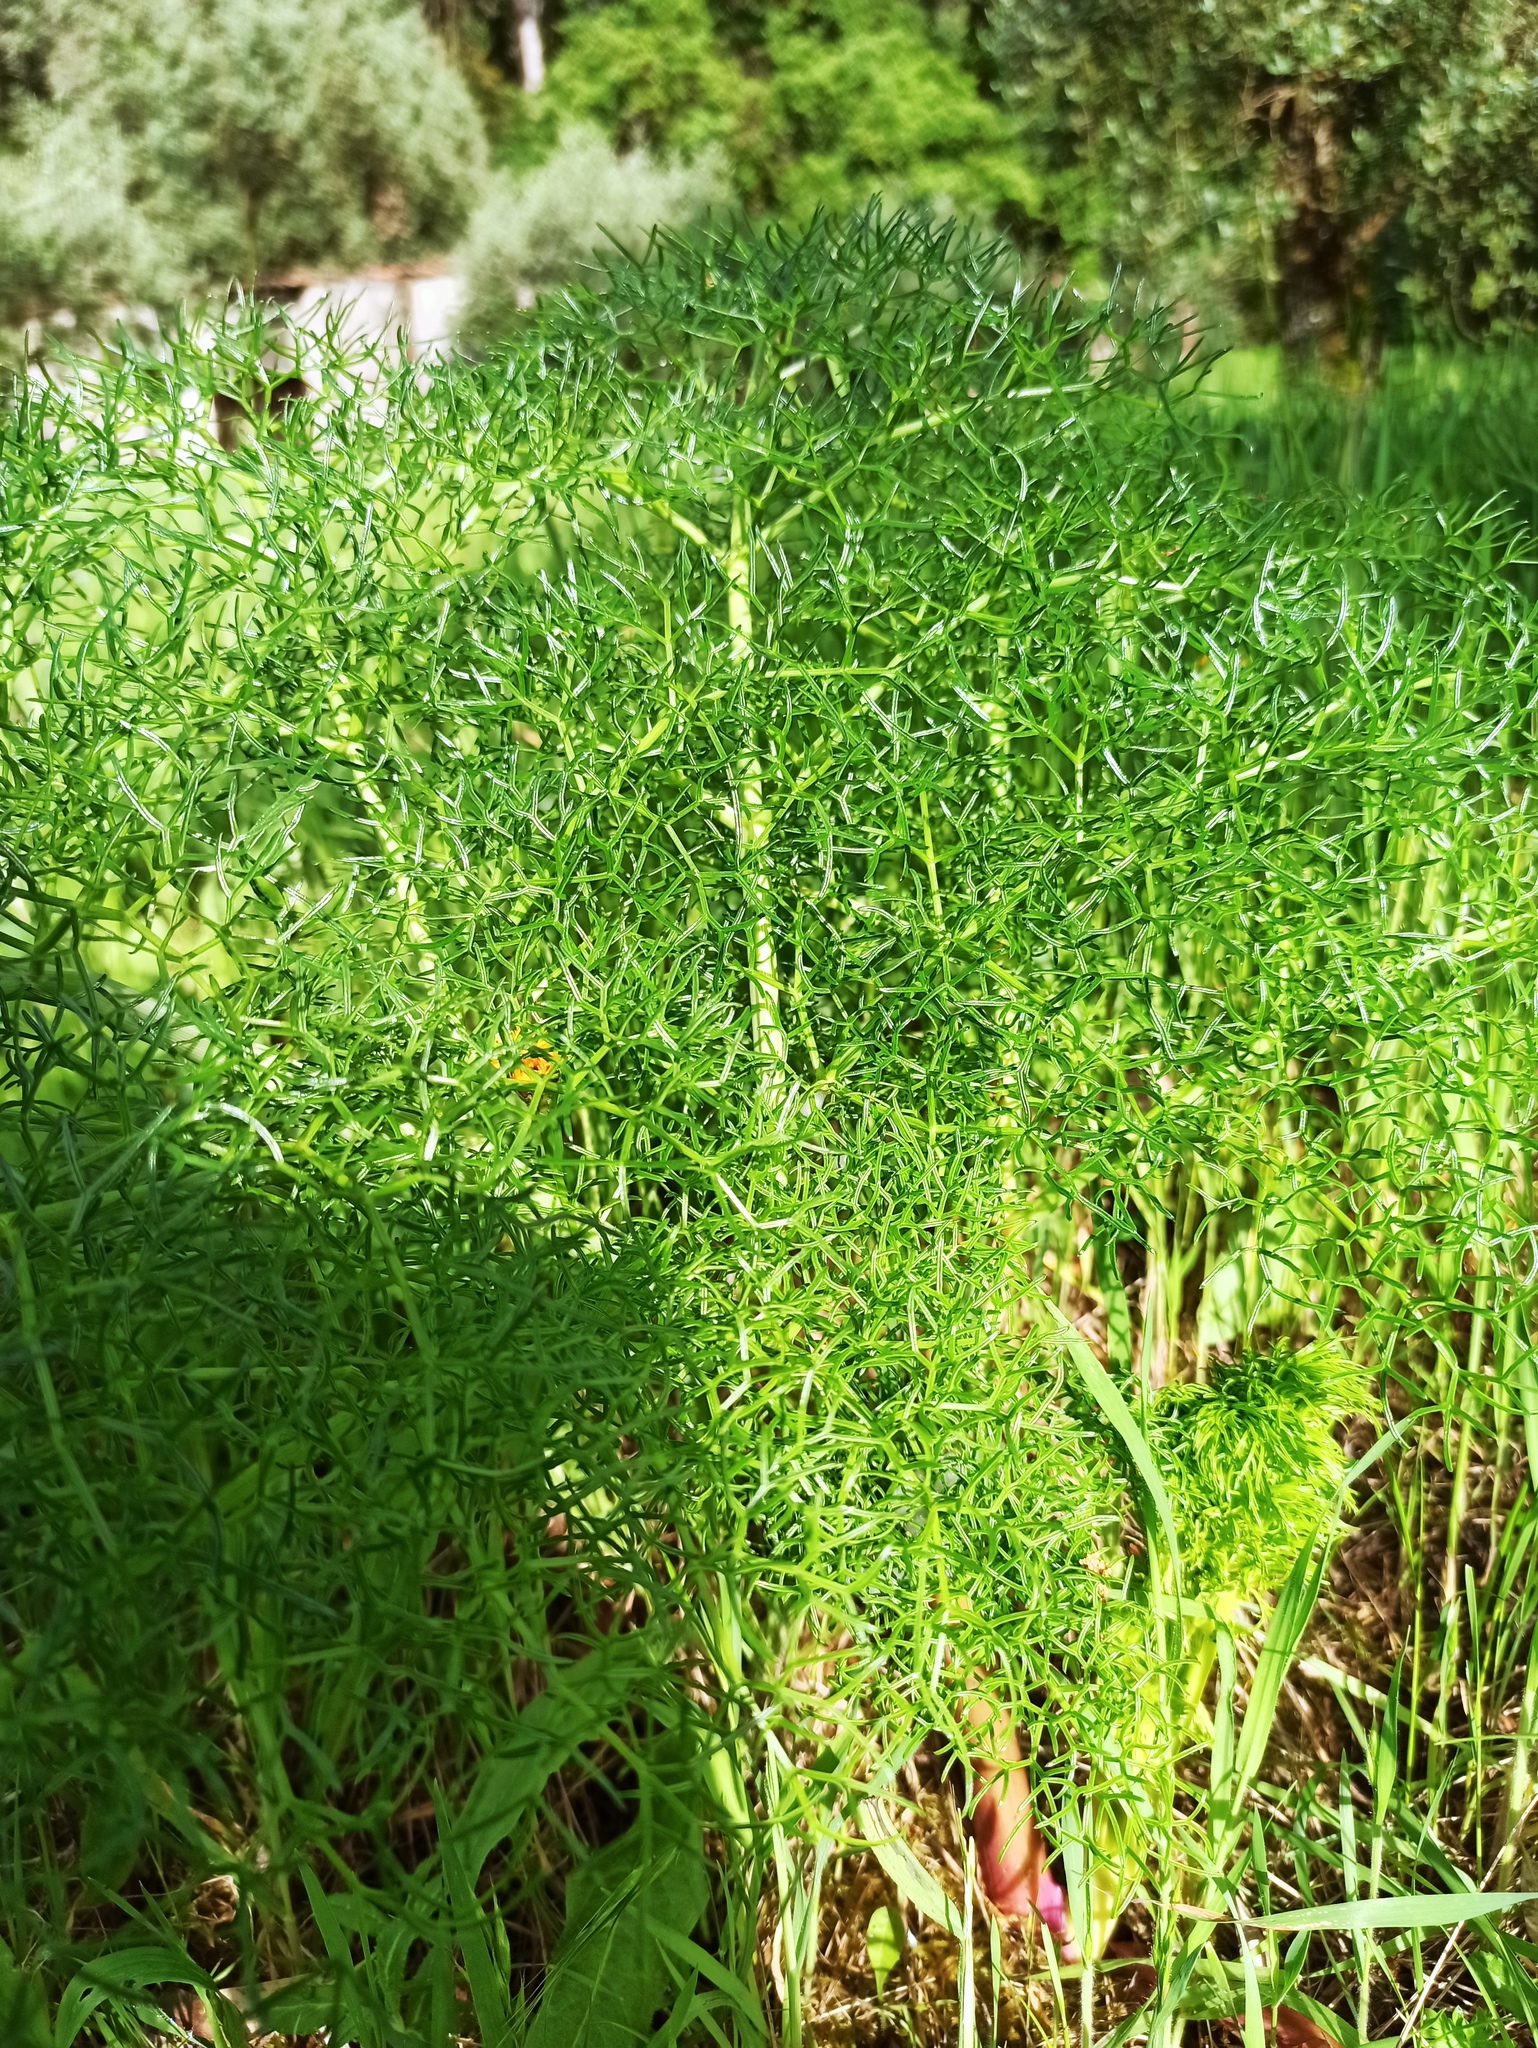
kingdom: Plantae
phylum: Tracheophyta
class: Magnoliopsida
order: Apiales
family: Apiaceae
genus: Ferula
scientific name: Ferula communis
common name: Giant fennel
